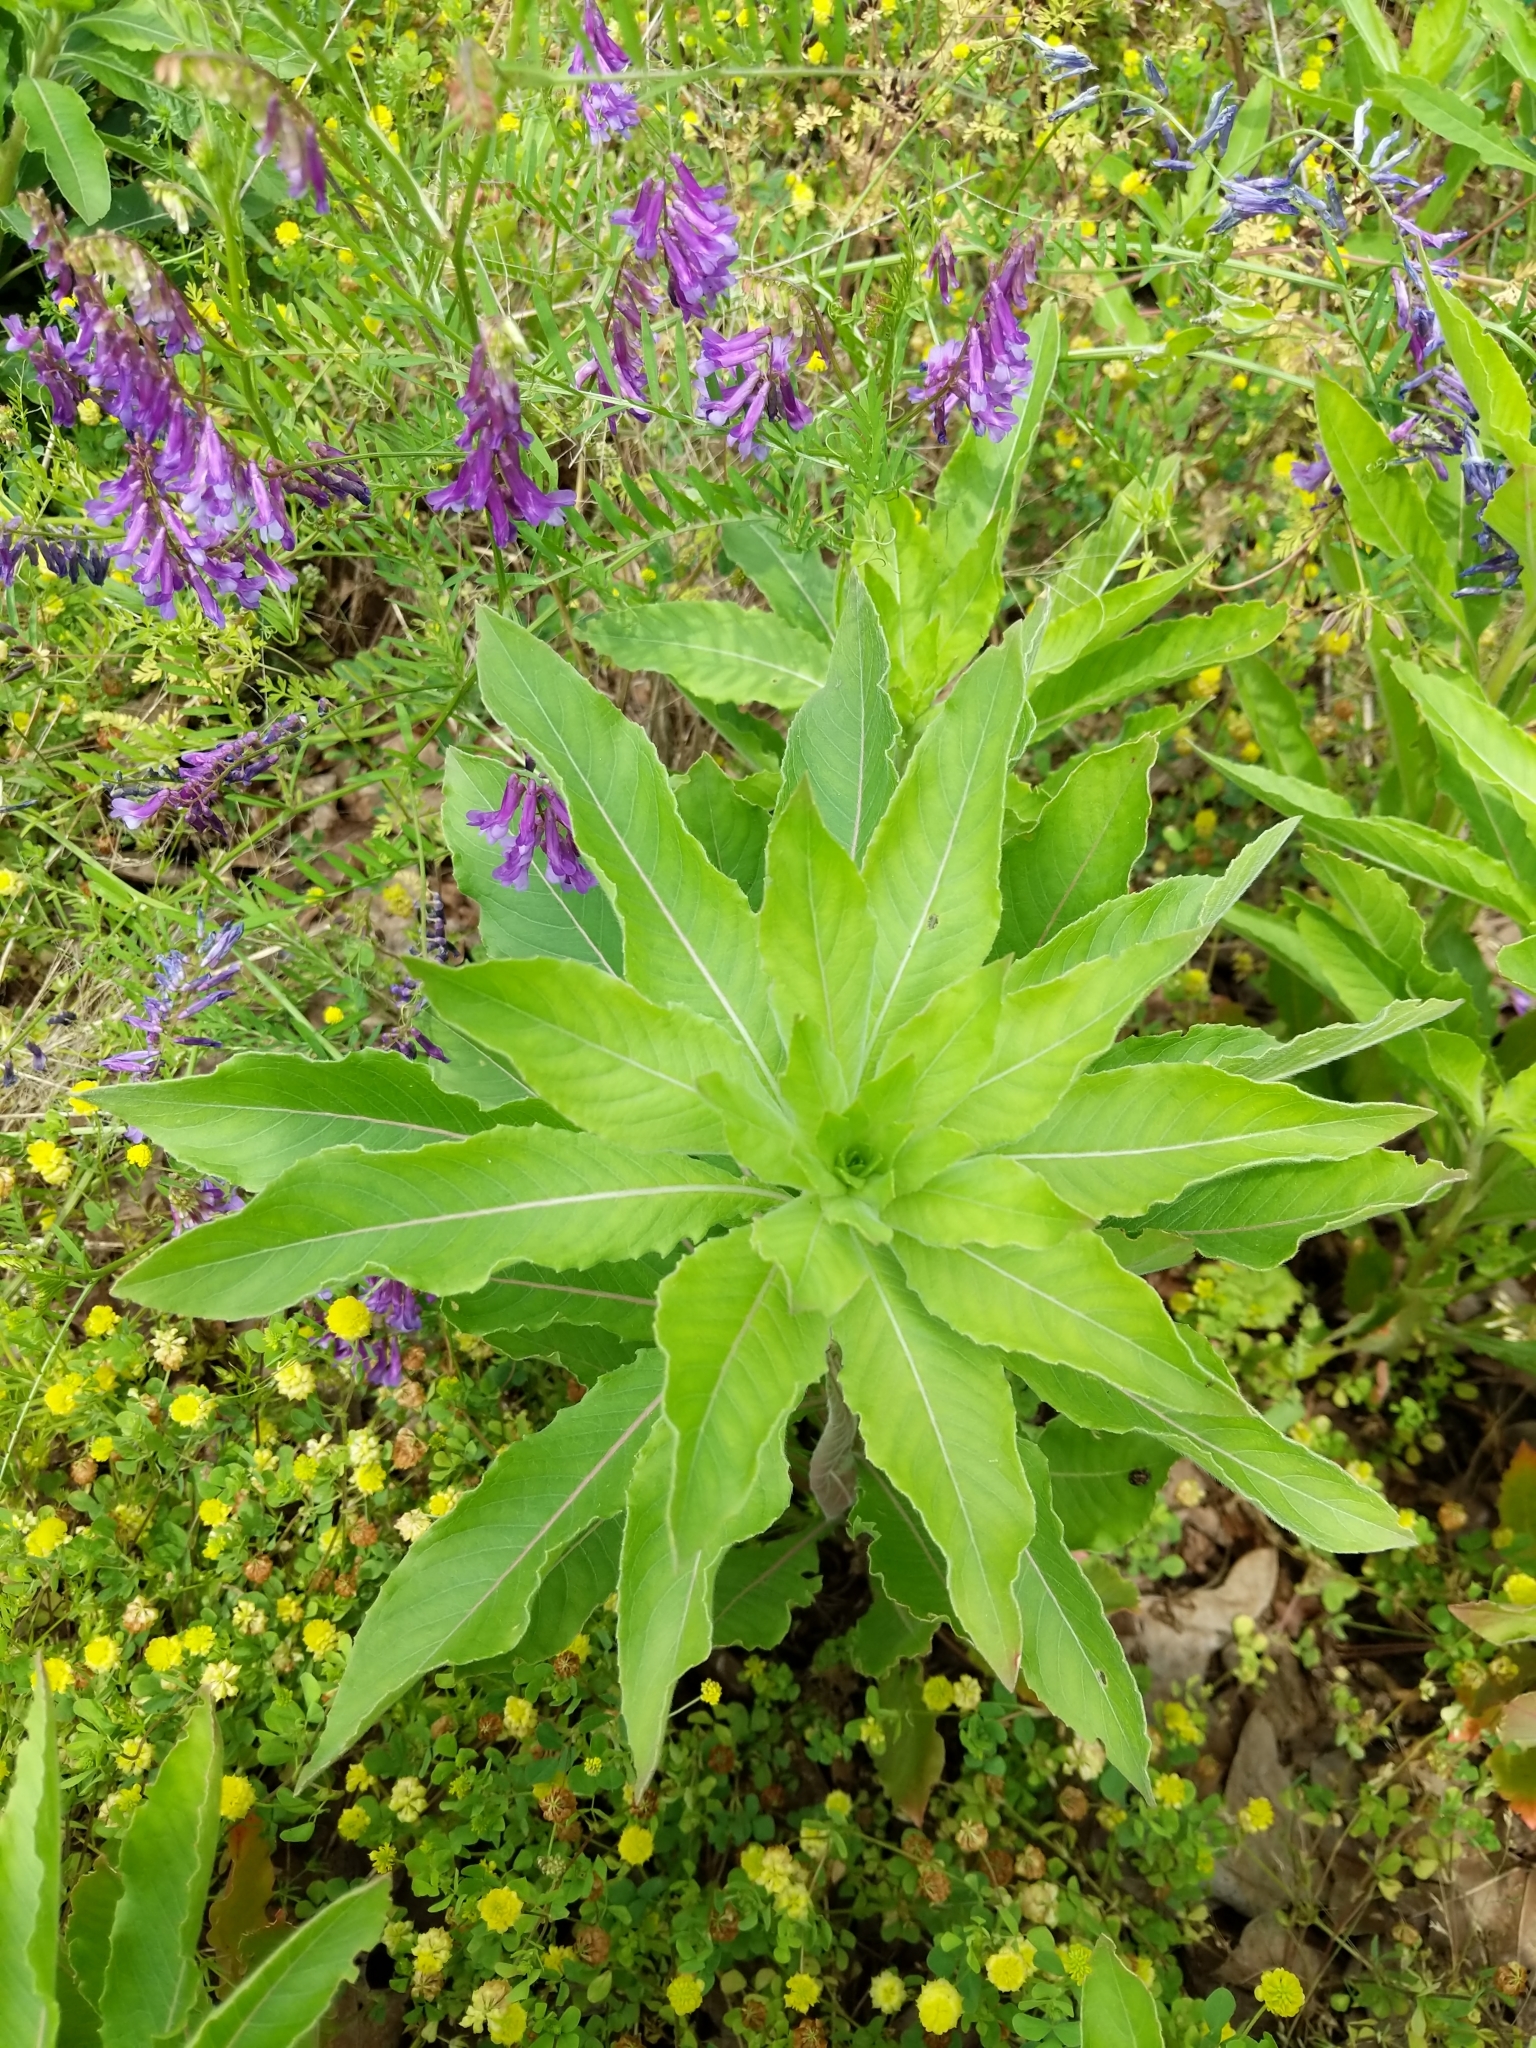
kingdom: Plantae
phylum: Tracheophyta
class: Magnoliopsida
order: Myrtales
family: Onagraceae
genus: Oenothera
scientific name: Oenothera biennis
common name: Common evening-primrose
